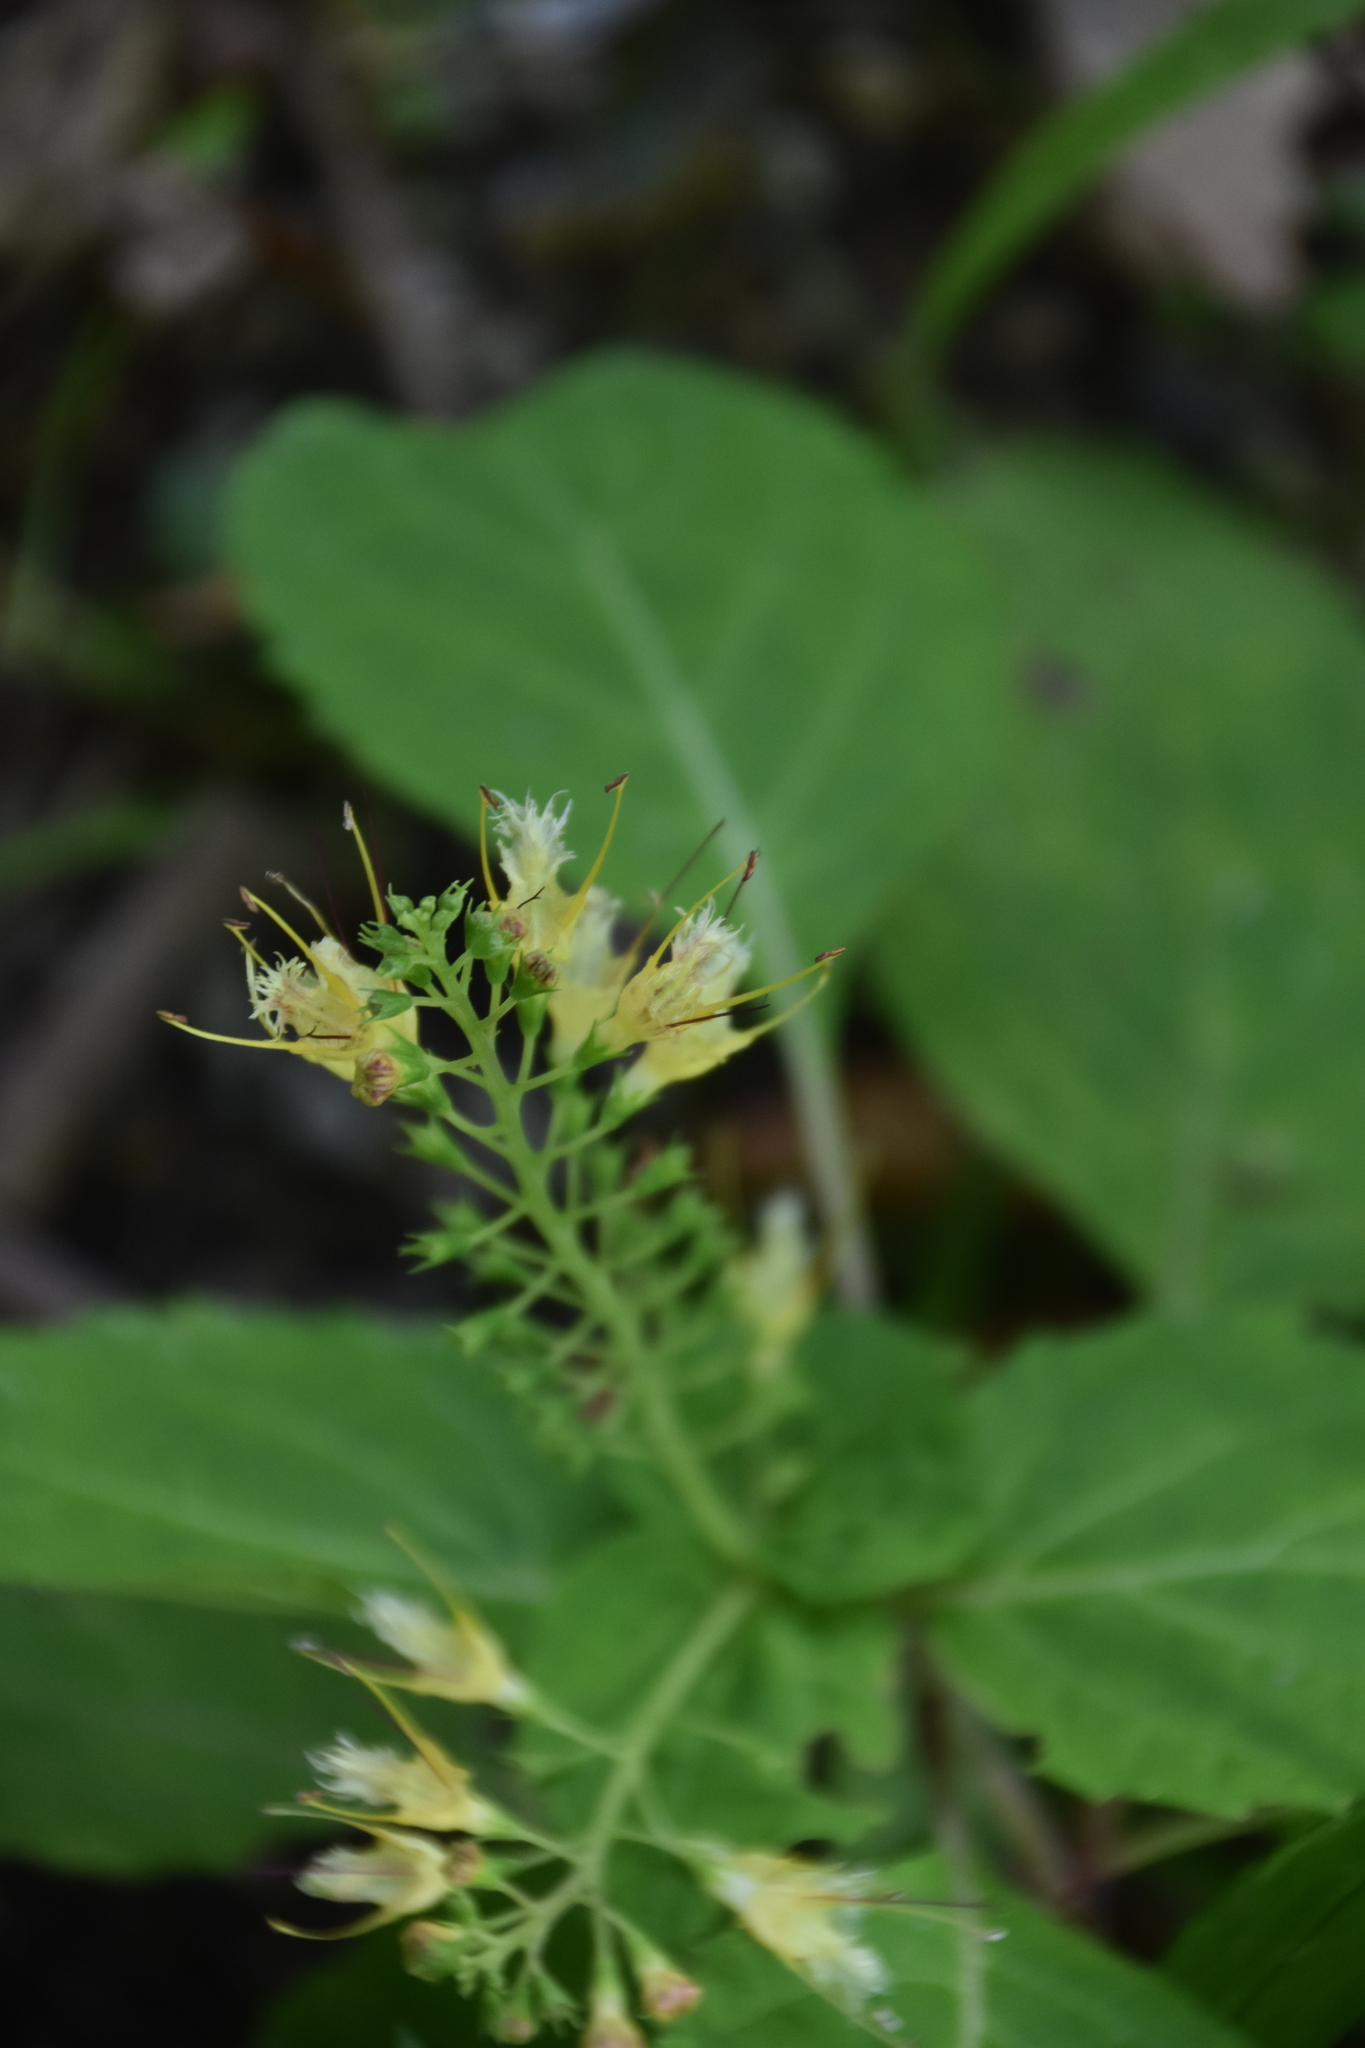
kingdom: Plantae
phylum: Tracheophyta
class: Magnoliopsida
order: Lamiales
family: Lamiaceae
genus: Collinsonia
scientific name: Collinsonia canadensis
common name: Northern horsebalm
